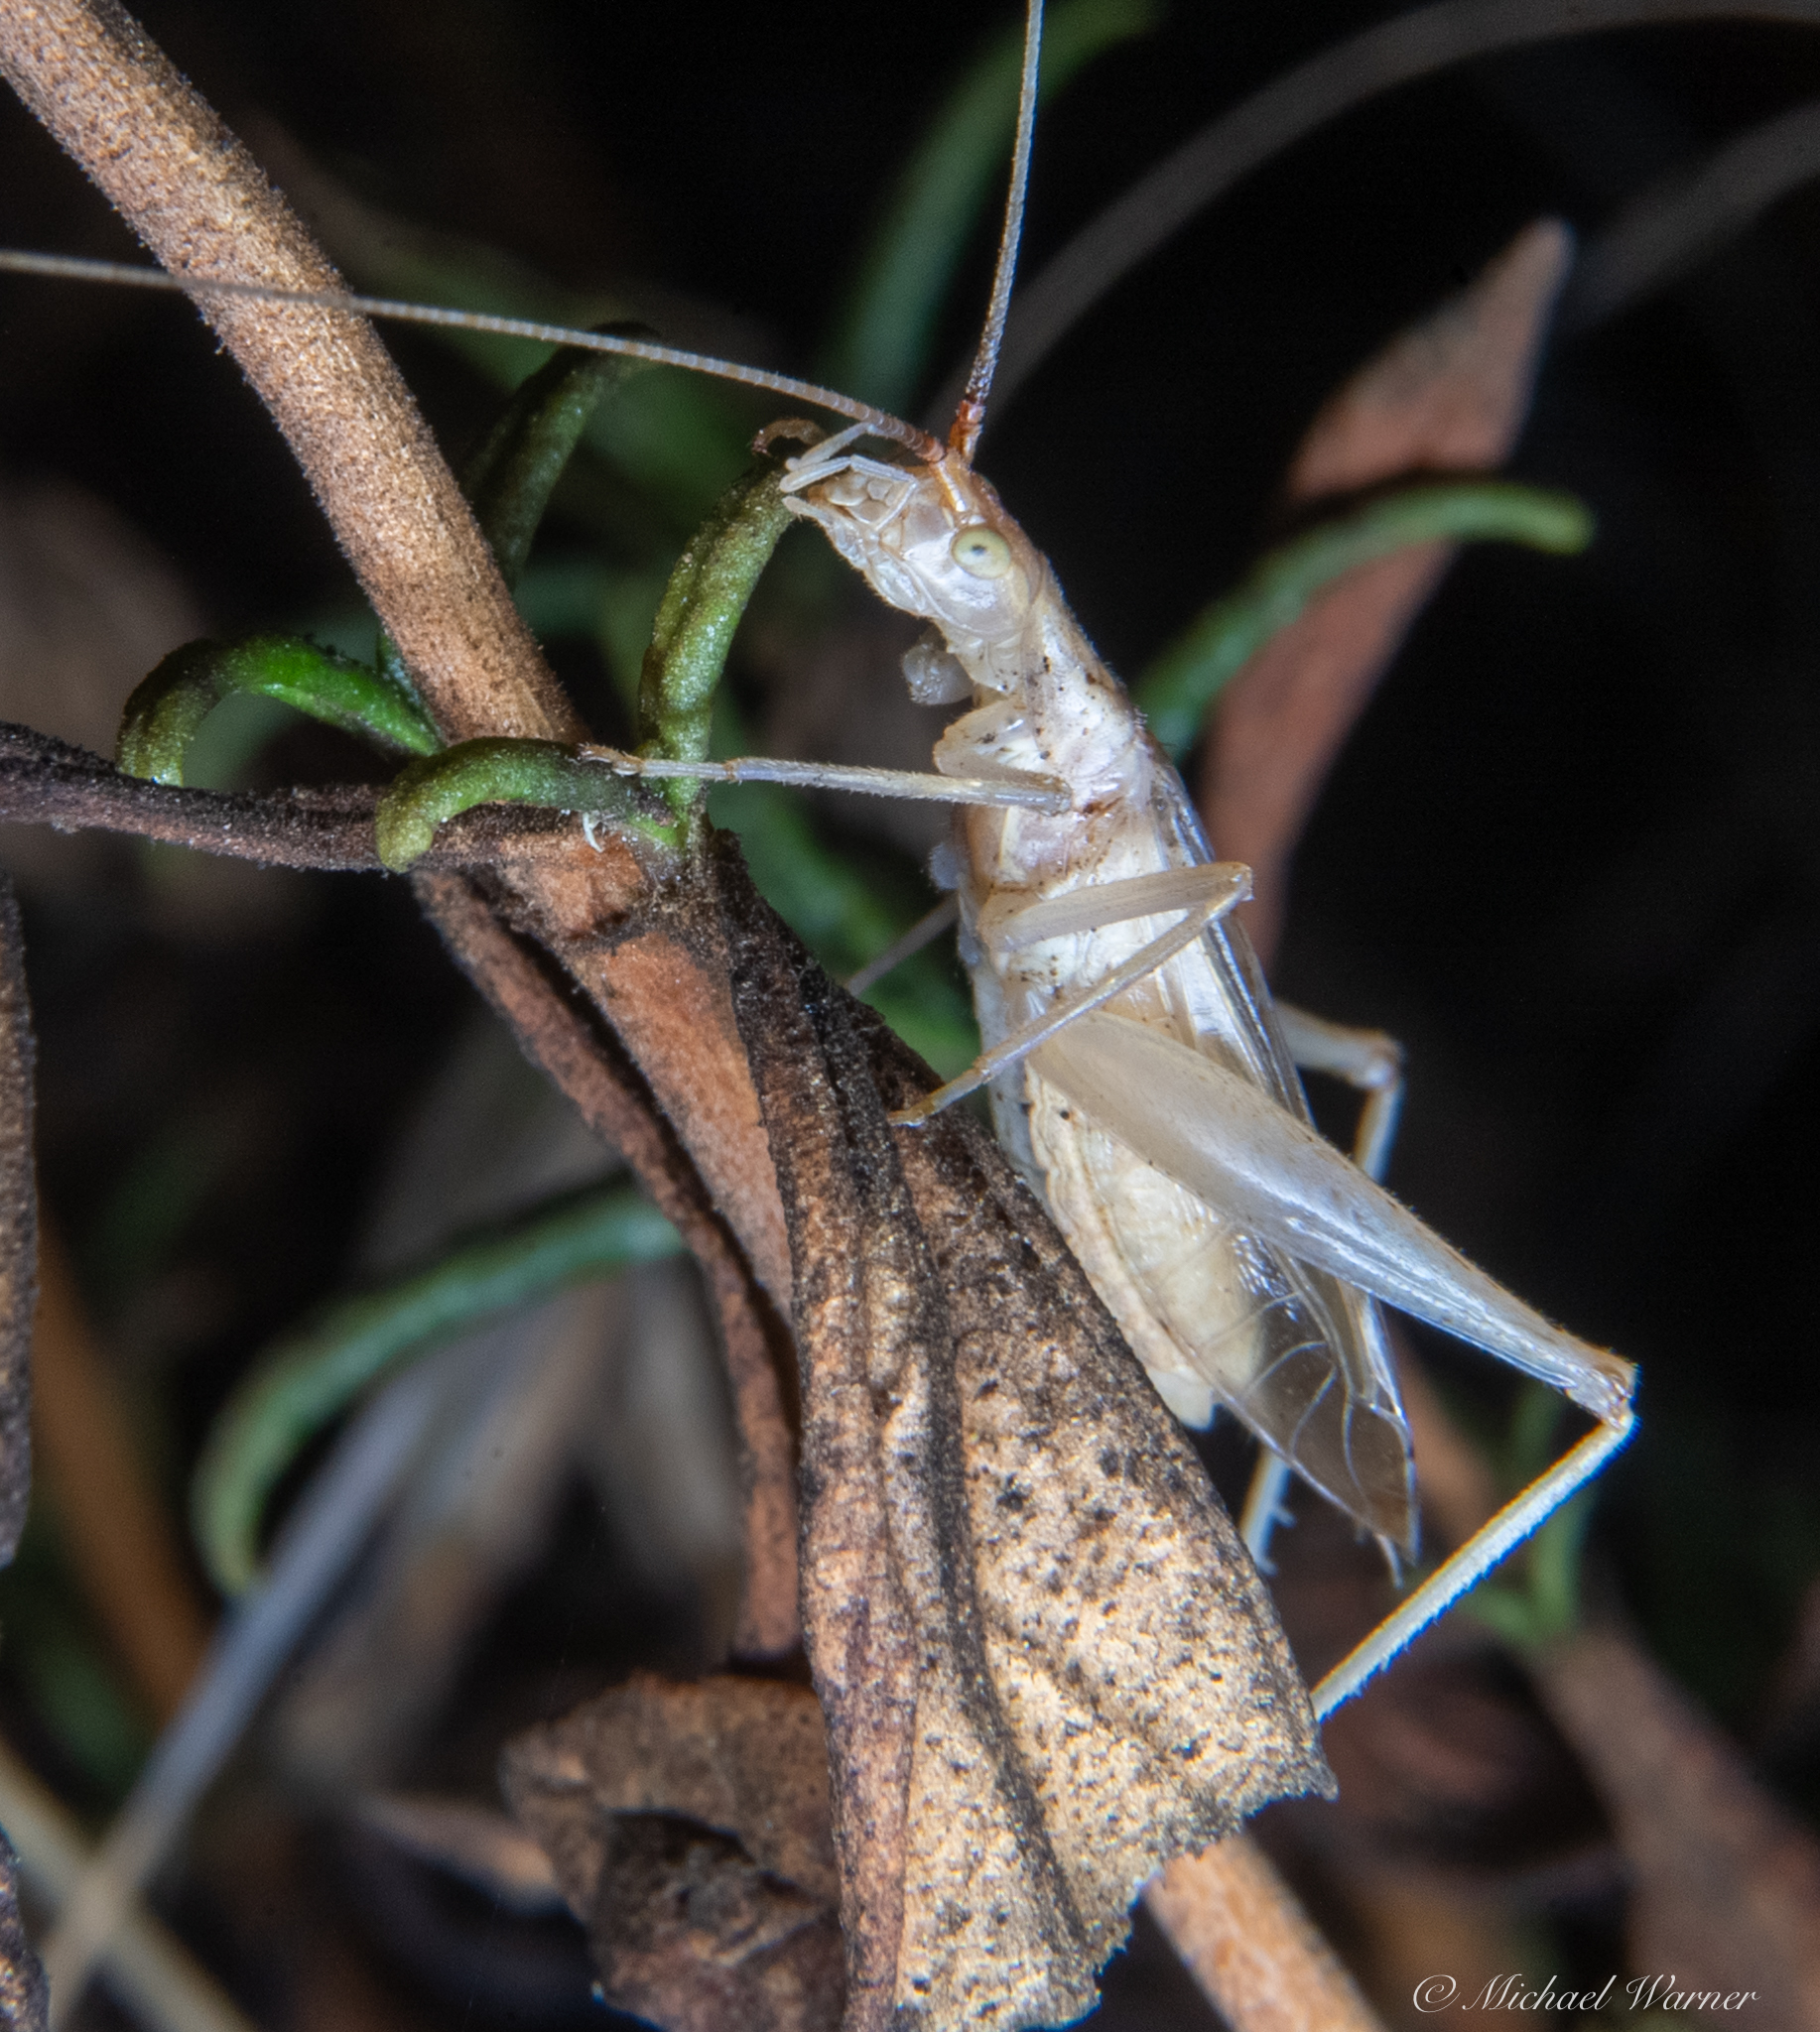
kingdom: Animalia
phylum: Arthropoda
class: Insecta
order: Orthoptera
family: Gryllidae
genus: Oecanthus
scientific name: Oecanthus californicus
